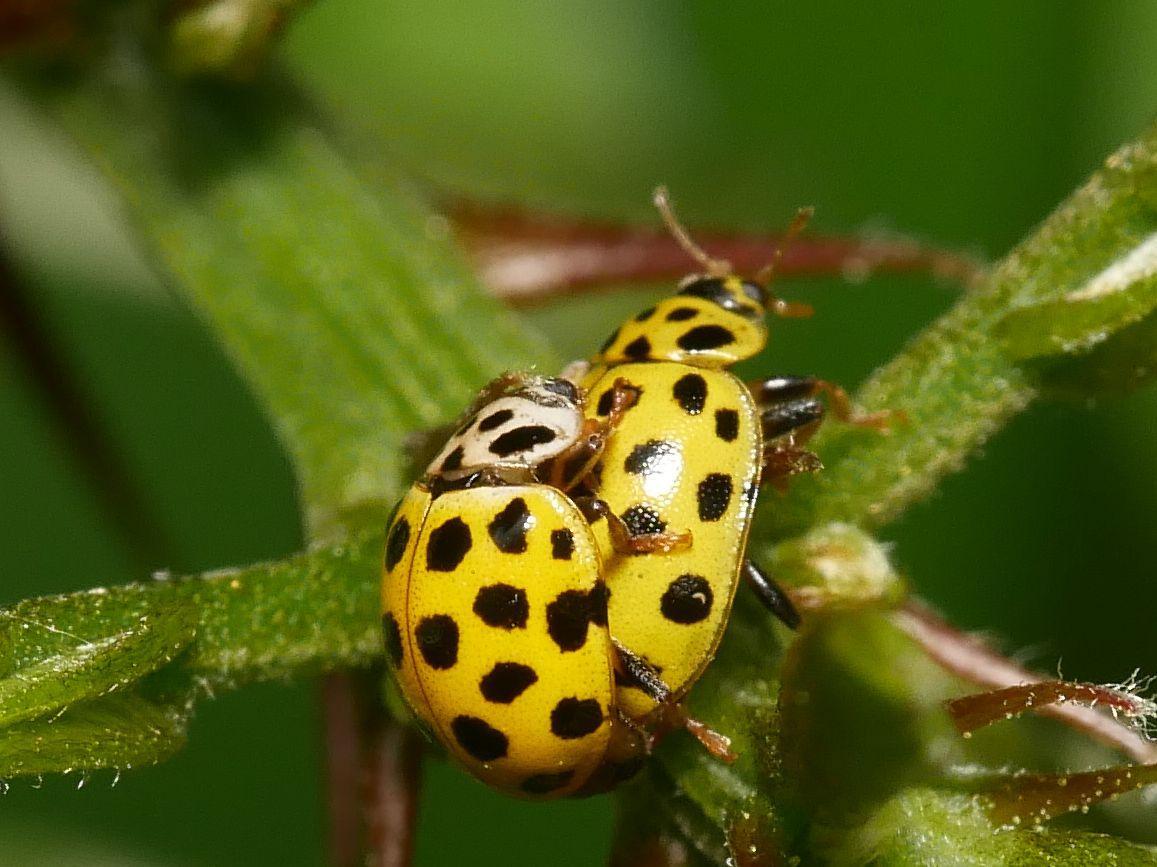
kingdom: Animalia
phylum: Arthropoda
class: Insecta
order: Coleoptera
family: Coccinellidae
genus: Psyllobora
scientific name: Psyllobora vigintiduopunctata
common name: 22-spot ladybird
